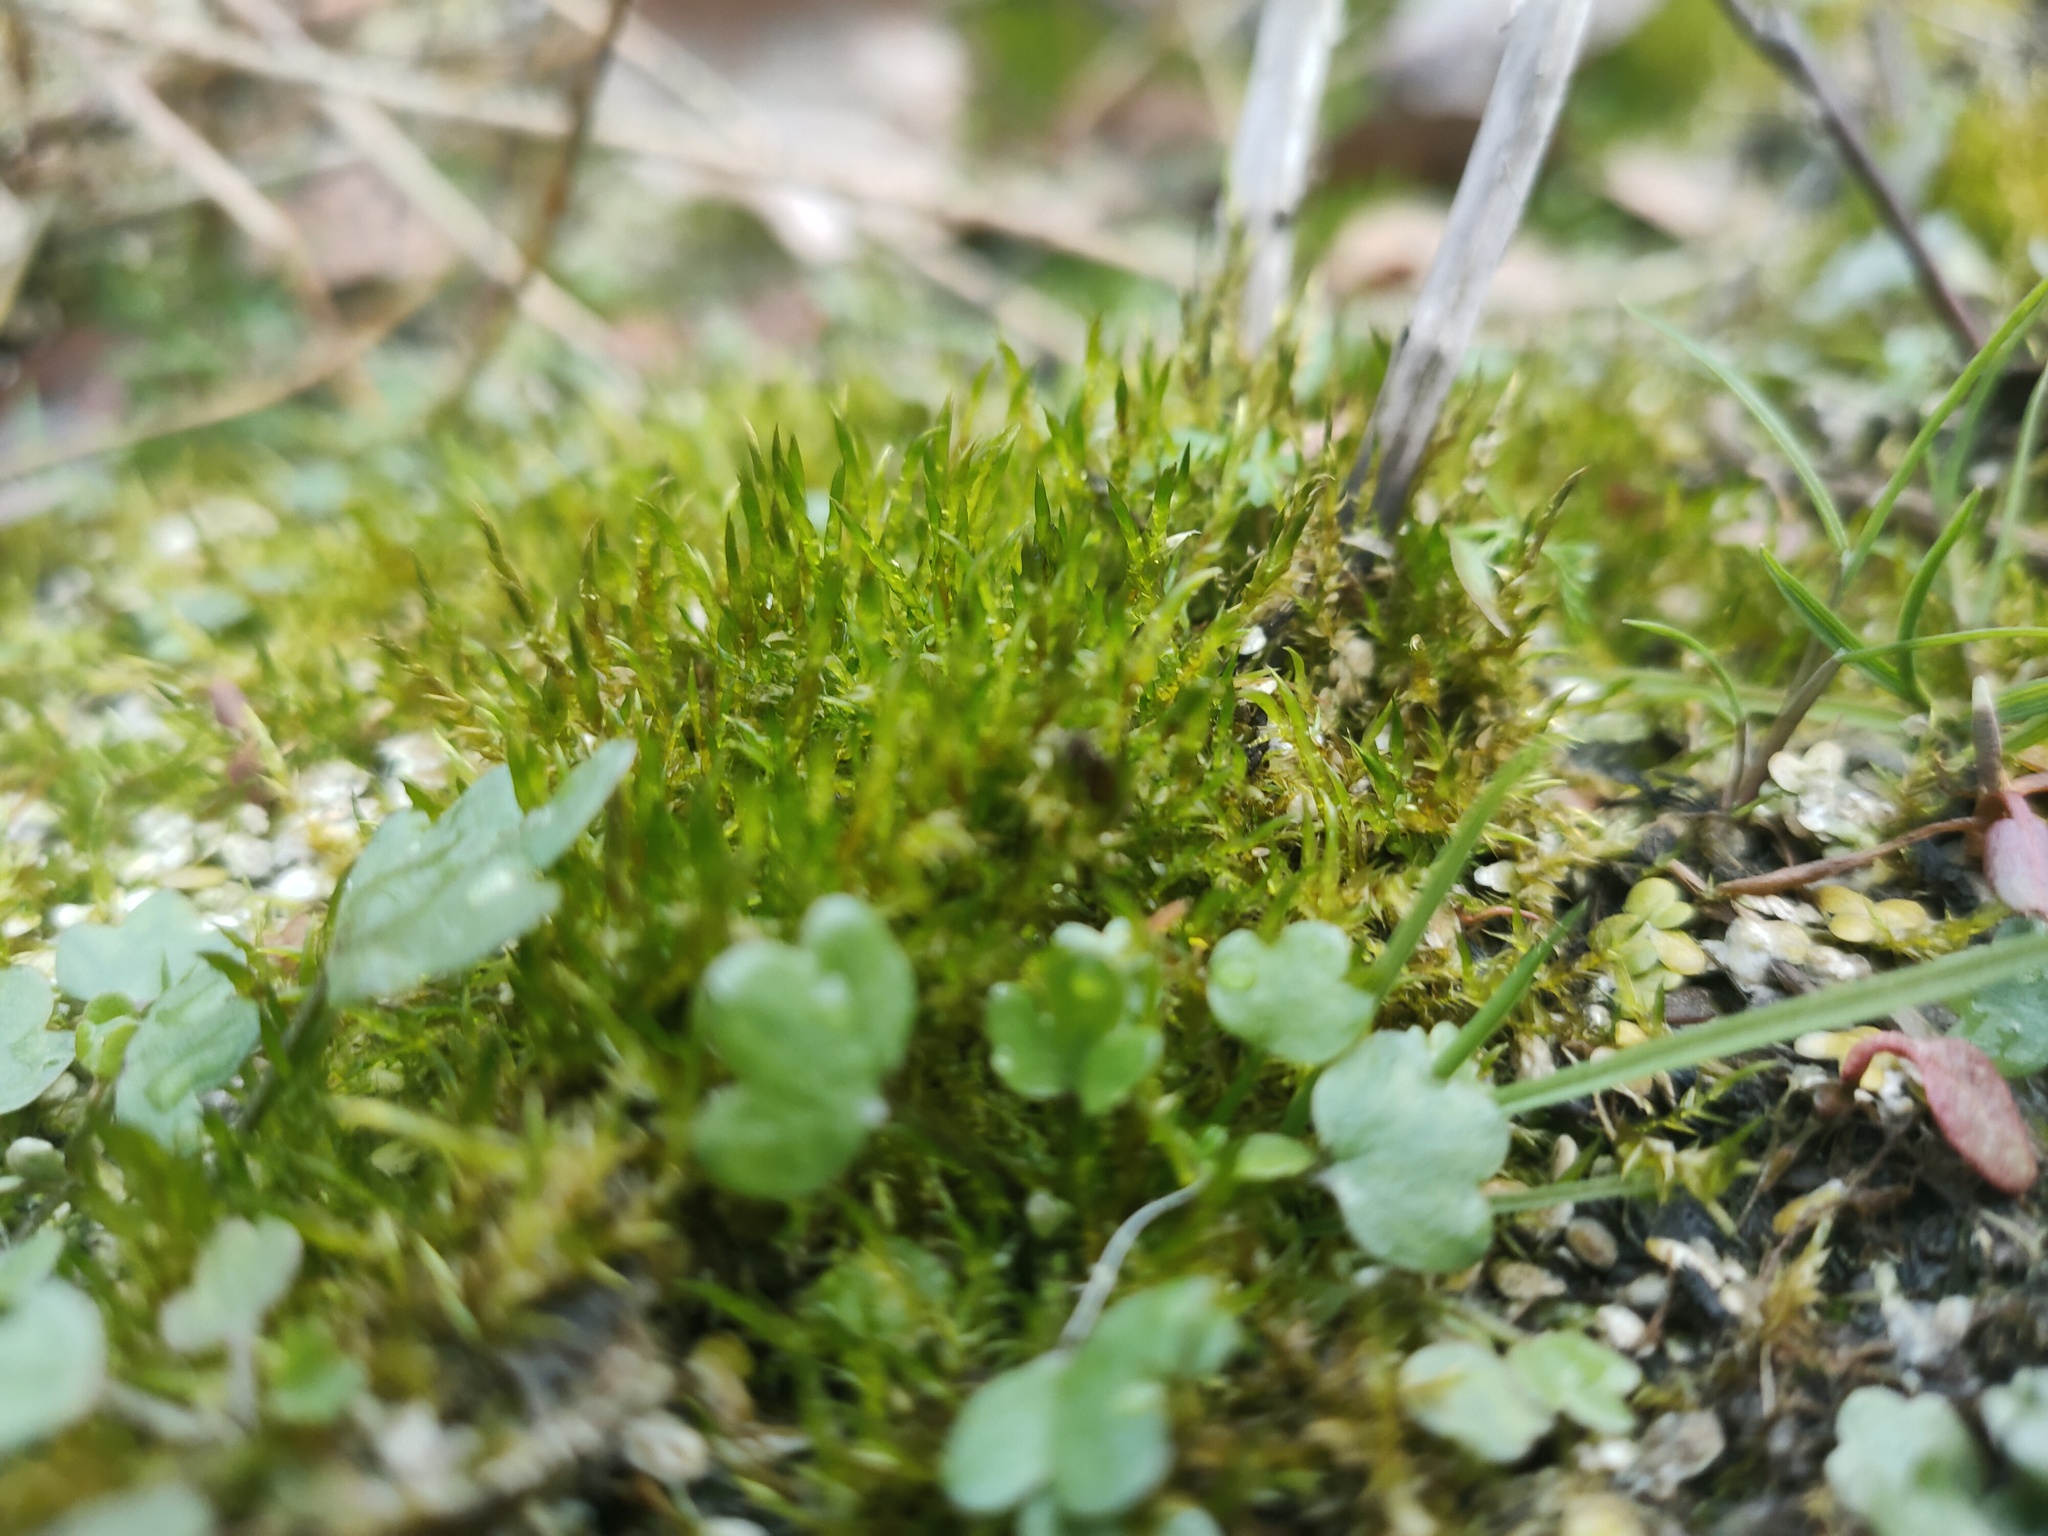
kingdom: Plantae
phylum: Bryophyta
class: Bryopsida
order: Hypnales
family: Pylaisiaceae
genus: Calliergonella
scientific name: Calliergonella cuspidata
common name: Common large wetland moss
